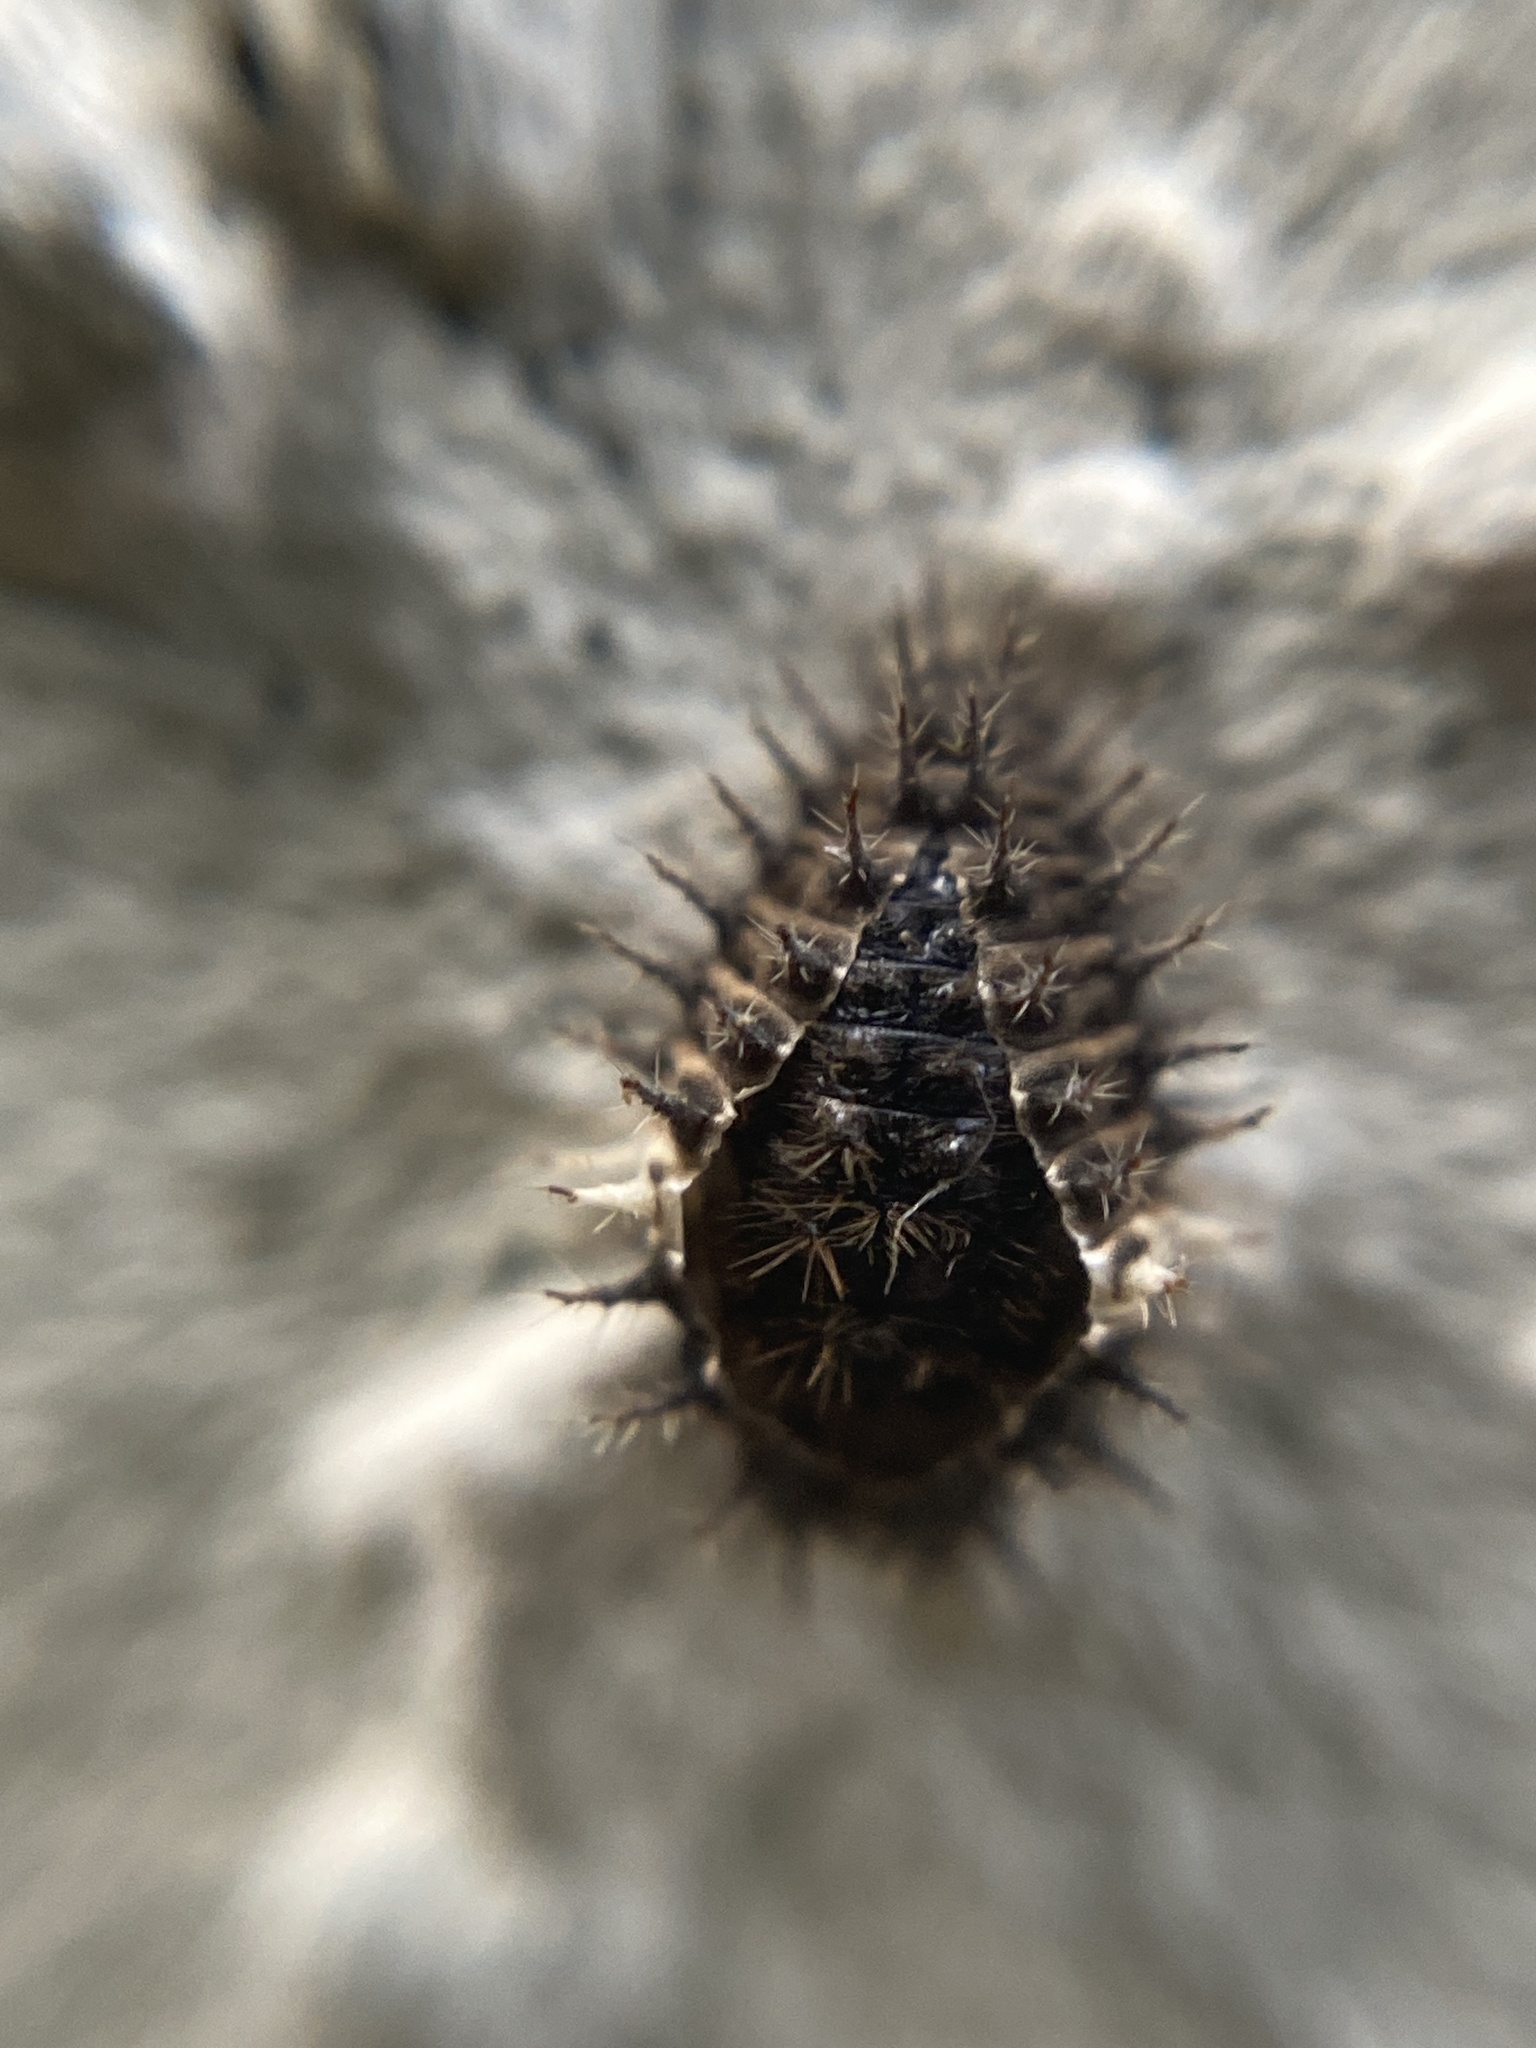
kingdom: Animalia
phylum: Arthropoda
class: Insecta
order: Coleoptera
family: Coccinellidae
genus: Chilocorus
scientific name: Chilocorus bipustulatus
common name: Heather ladybird
